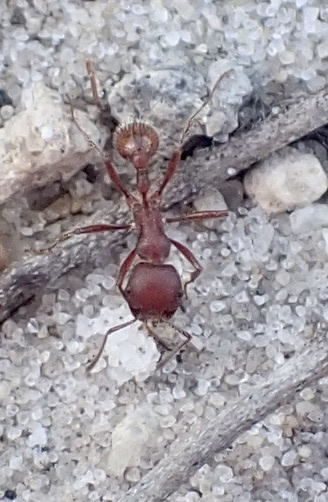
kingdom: Animalia
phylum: Arthropoda
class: Insecta
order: Hymenoptera
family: Formicidae
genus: Pogonomyrmex
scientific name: Pogonomyrmex badius
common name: Florida harvester ant
